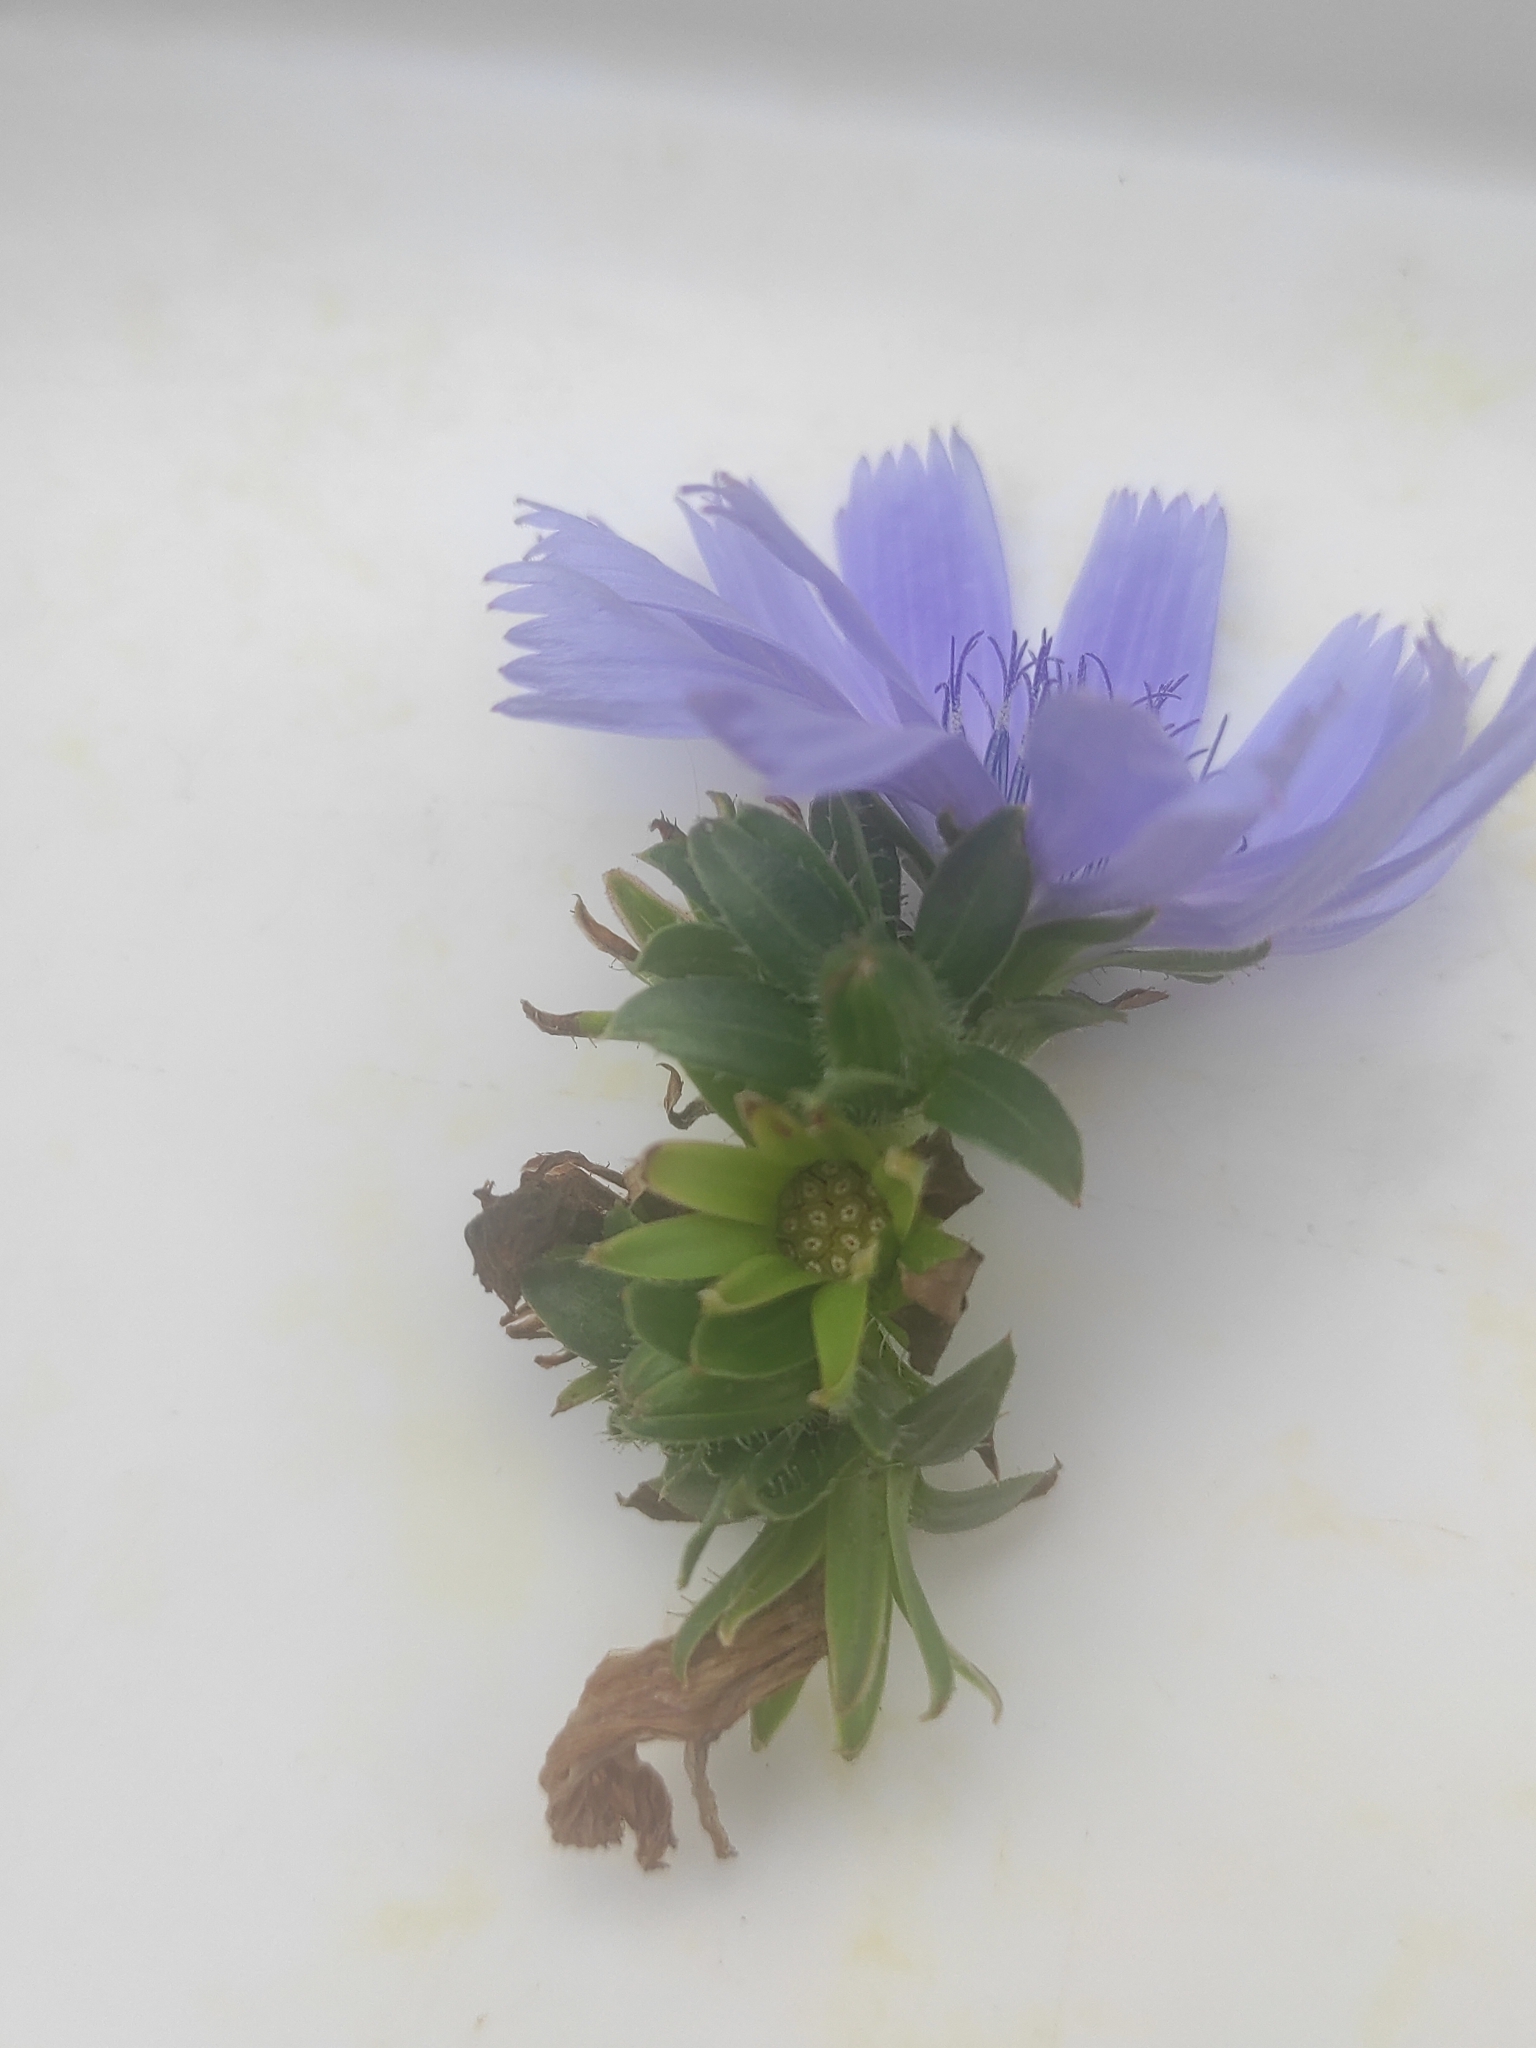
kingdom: Plantae
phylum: Tracheophyta
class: Magnoliopsida
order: Asterales
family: Asteraceae
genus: Cichorium
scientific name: Cichorium intybus
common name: Chicory
